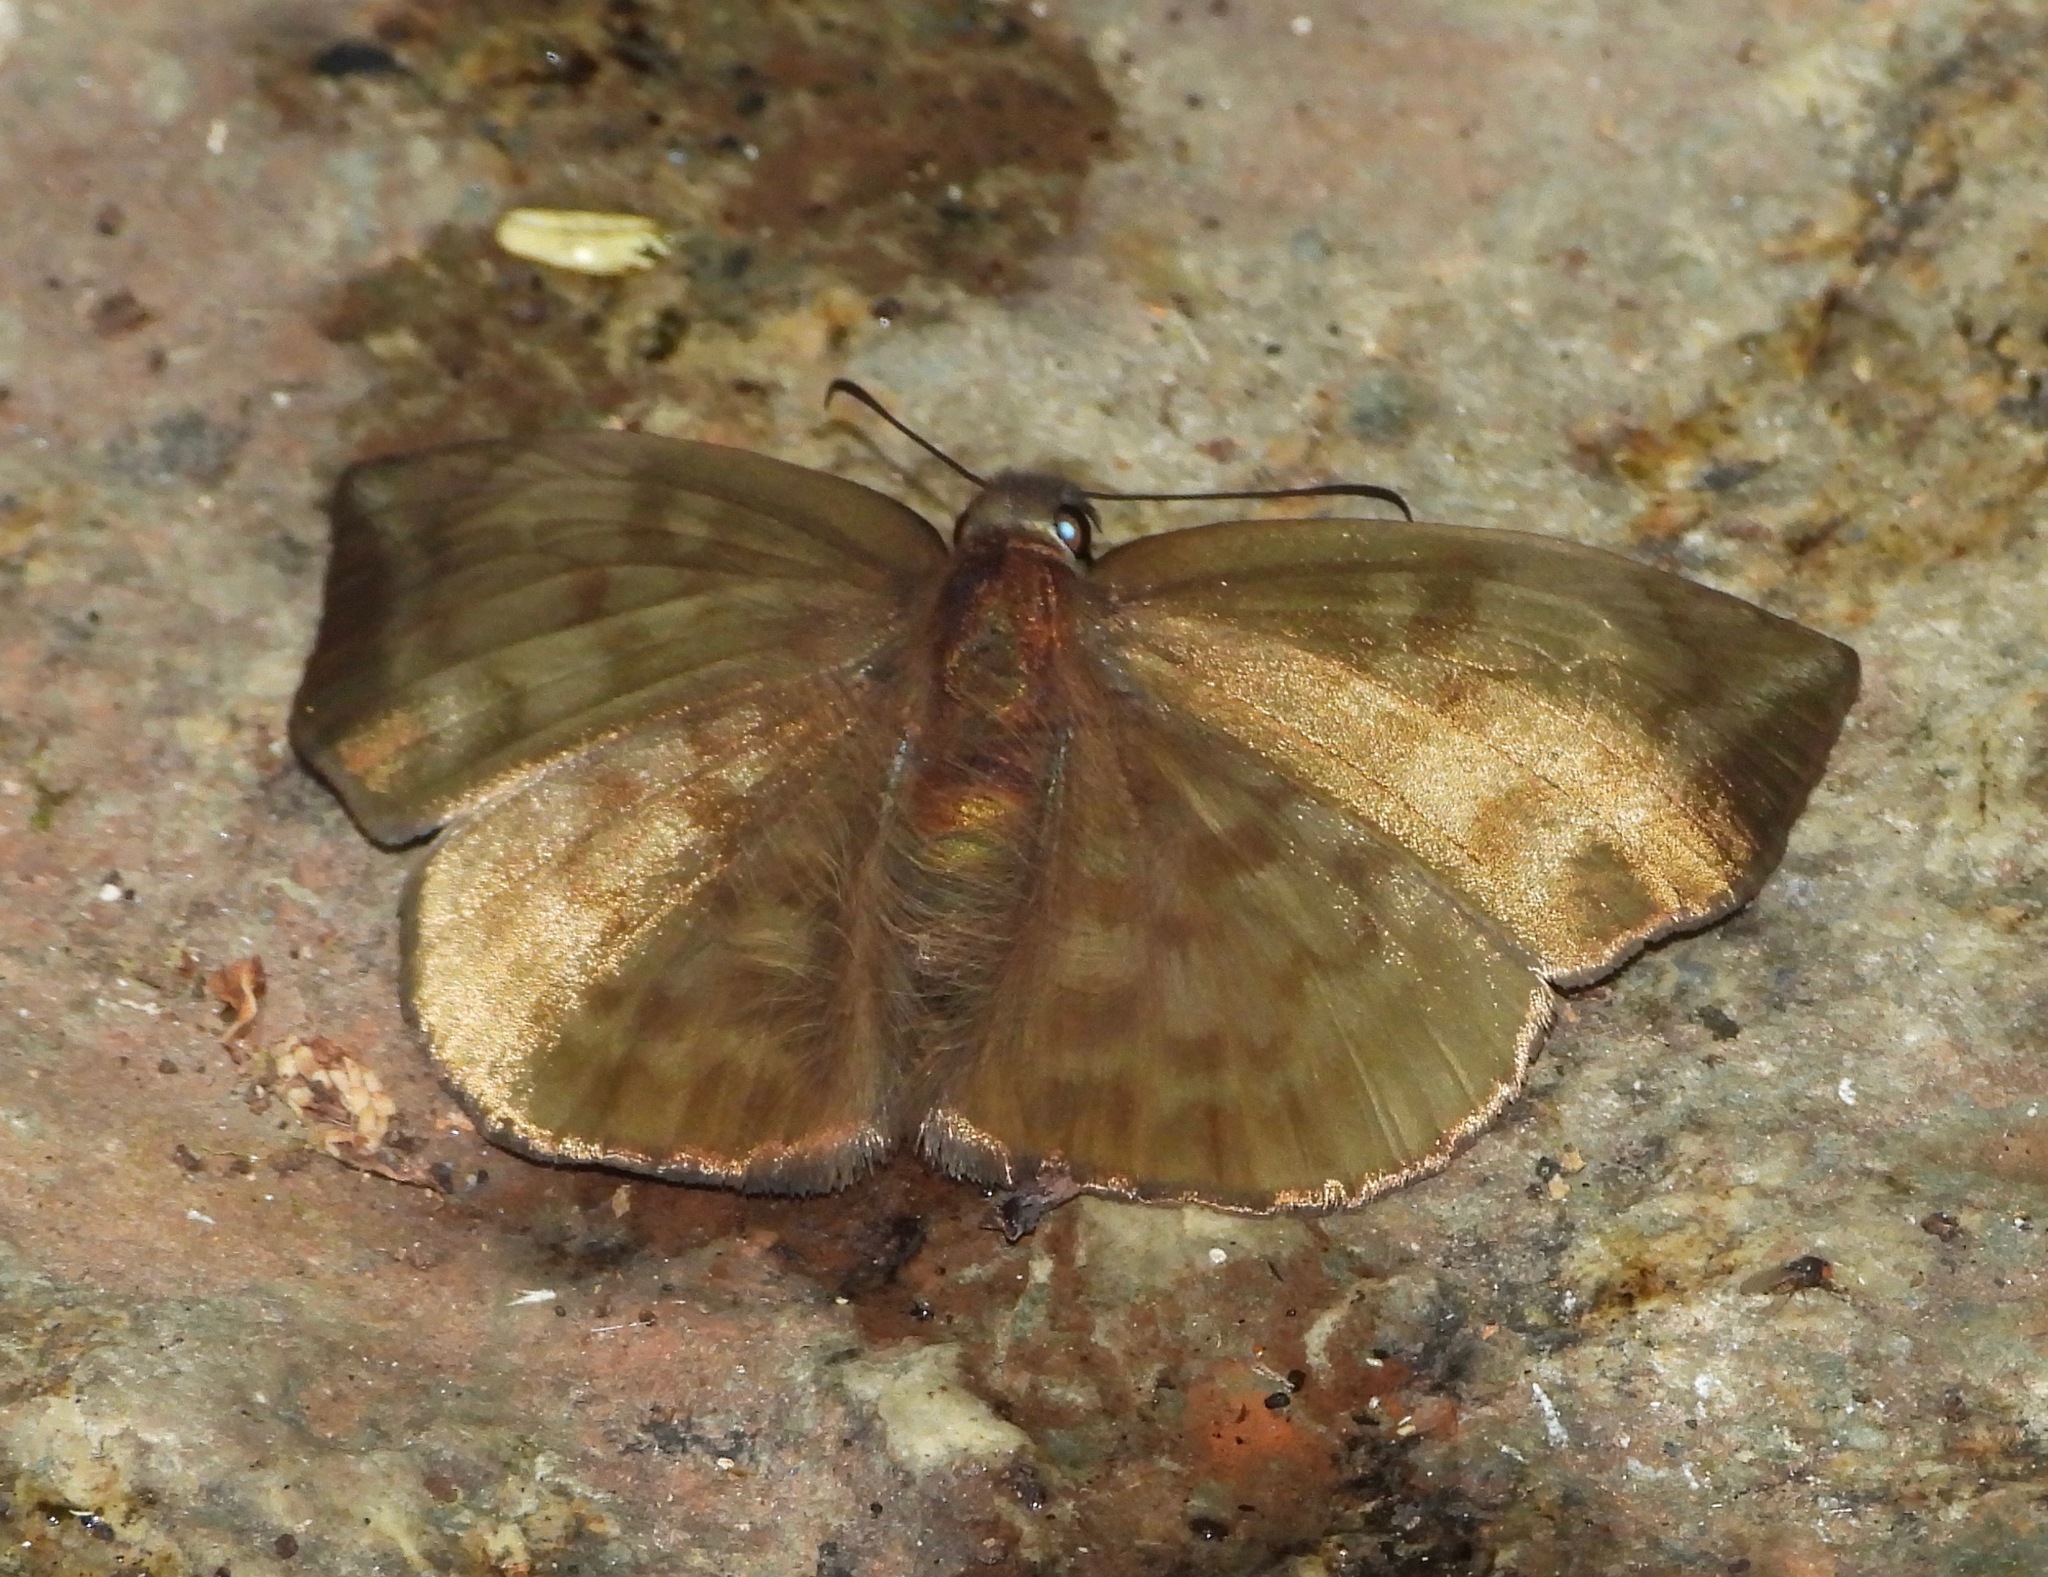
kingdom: Animalia
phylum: Arthropoda
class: Insecta
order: Lepidoptera
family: Hesperiidae
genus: Achlyodes
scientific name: Achlyodes pallida
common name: Pale sicklewing
